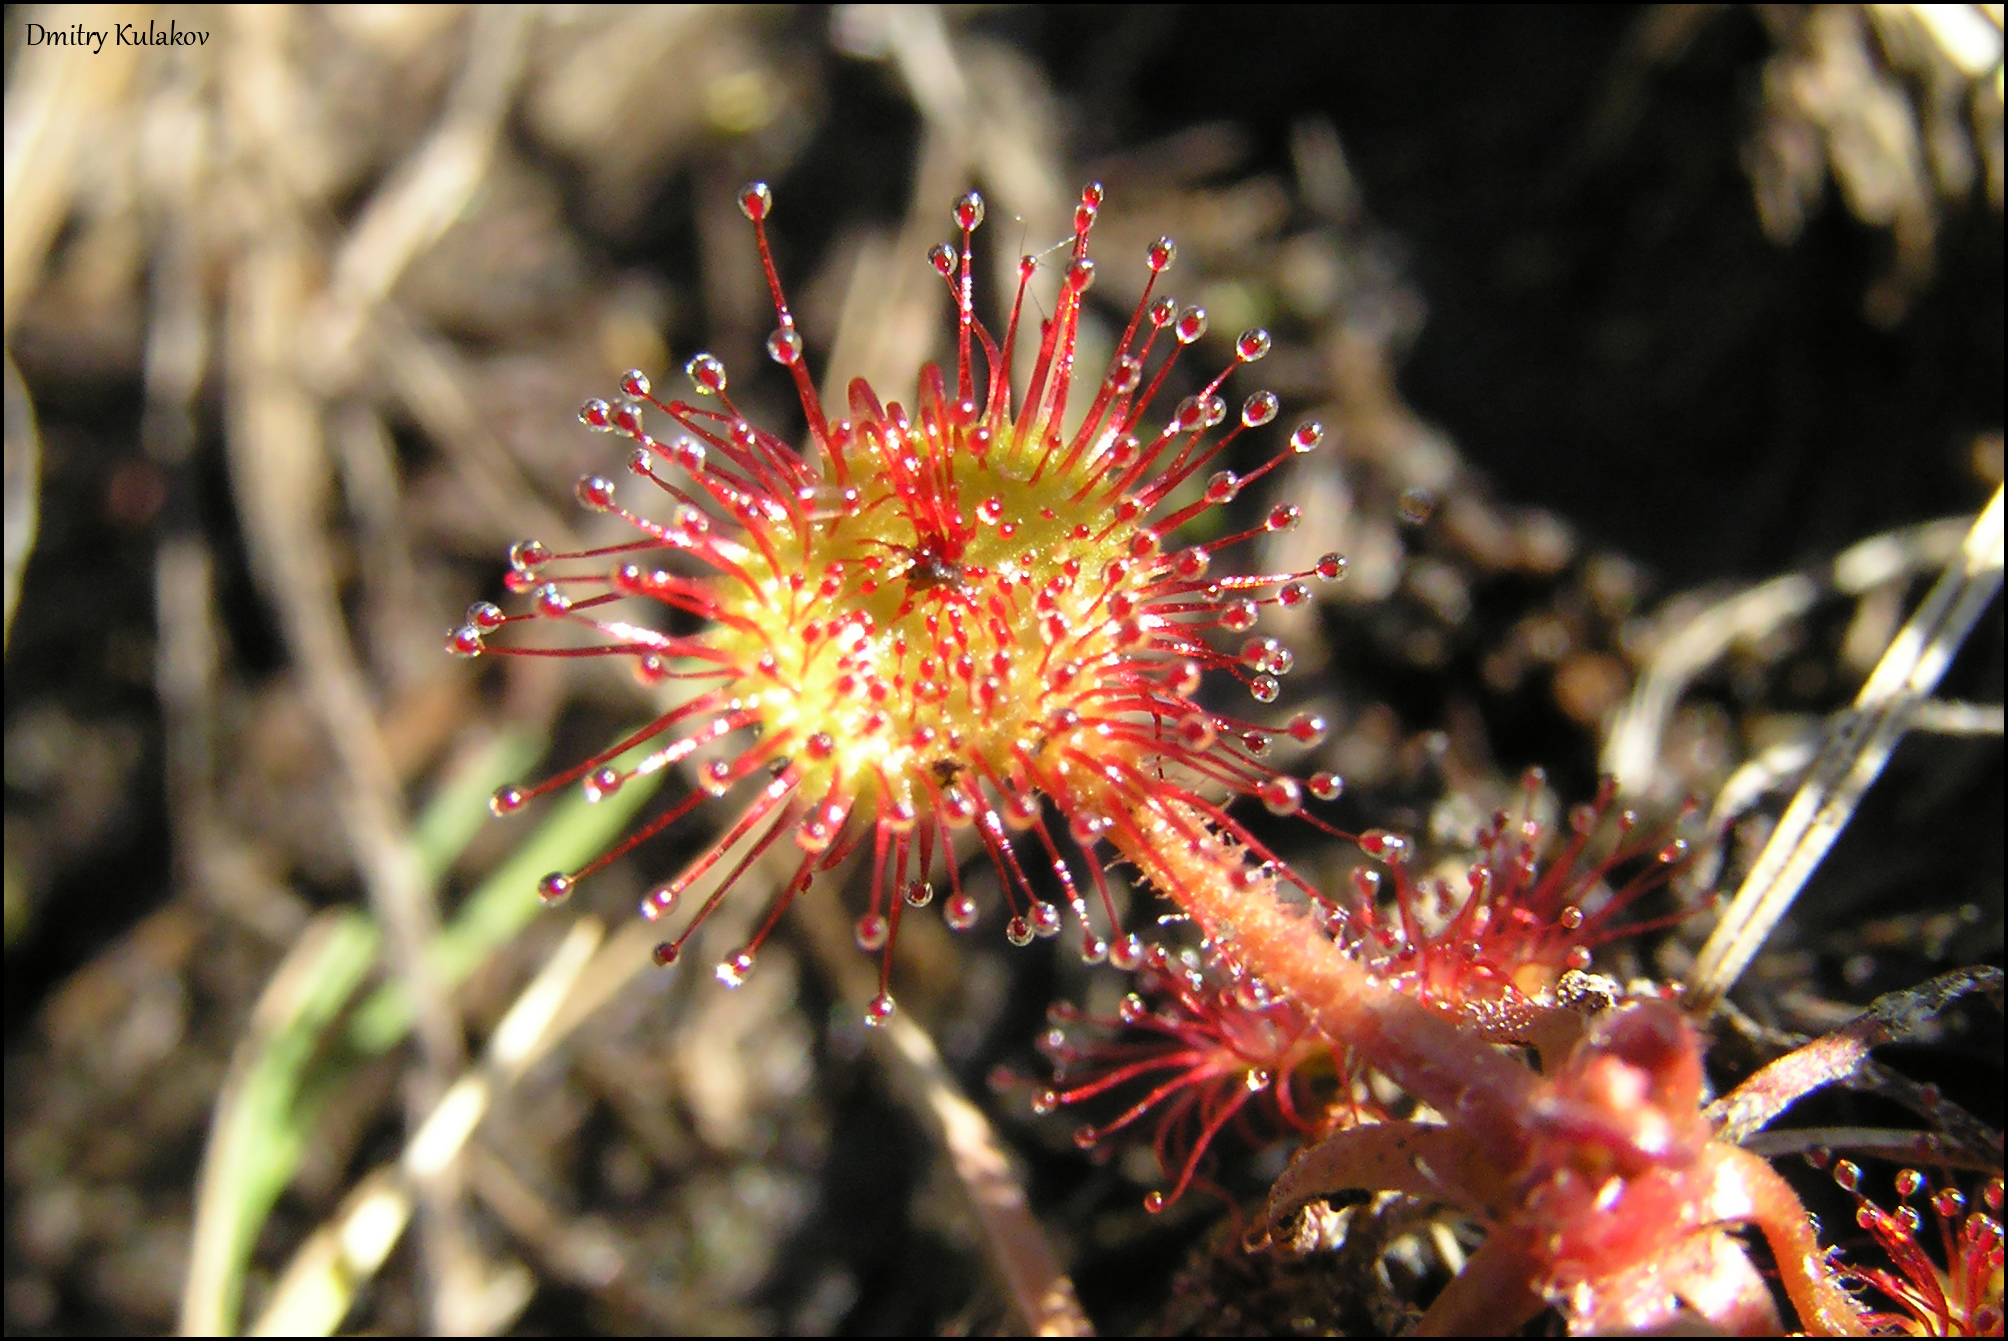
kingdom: Plantae
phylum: Tracheophyta
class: Magnoliopsida
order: Caryophyllales
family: Droseraceae
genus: Drosera
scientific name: Drosera rotundifolia
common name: Round-leaved sundew
